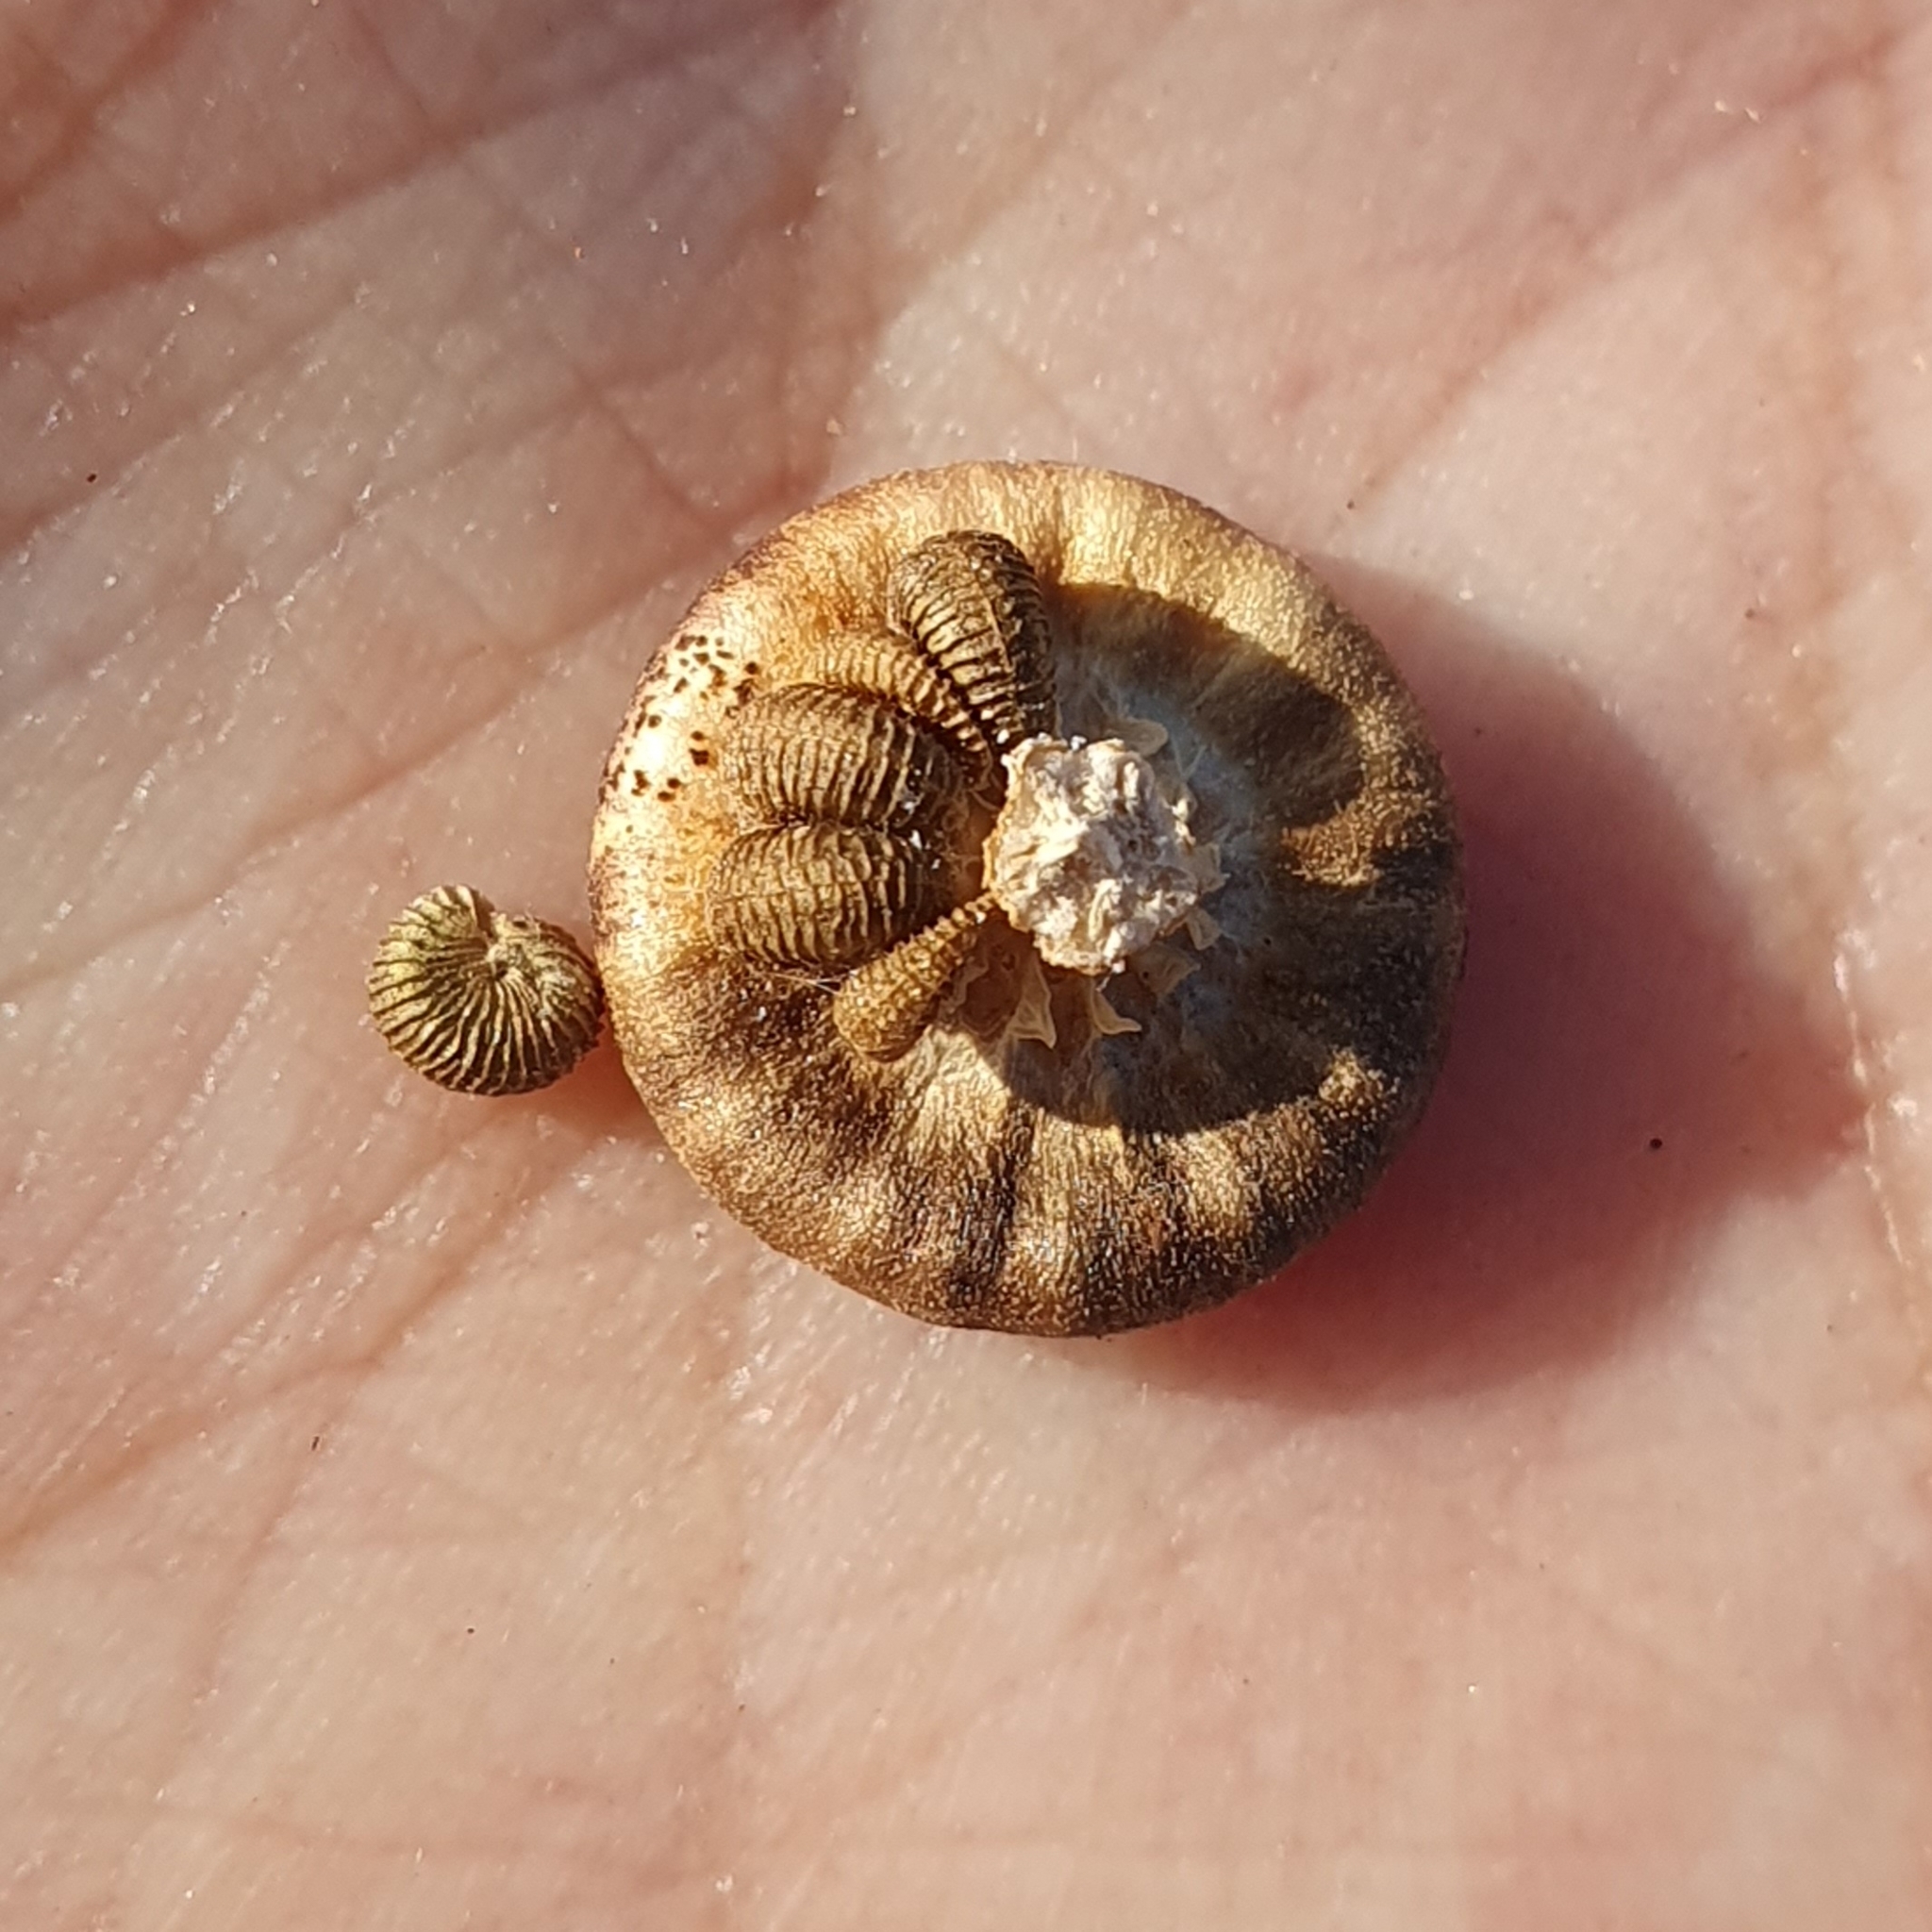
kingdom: Plantae
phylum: Tracheophyta
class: Magnoliopsida
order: Malvales
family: Malvaceae
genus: Malva
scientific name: Malva trimestris
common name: Royal mallow
